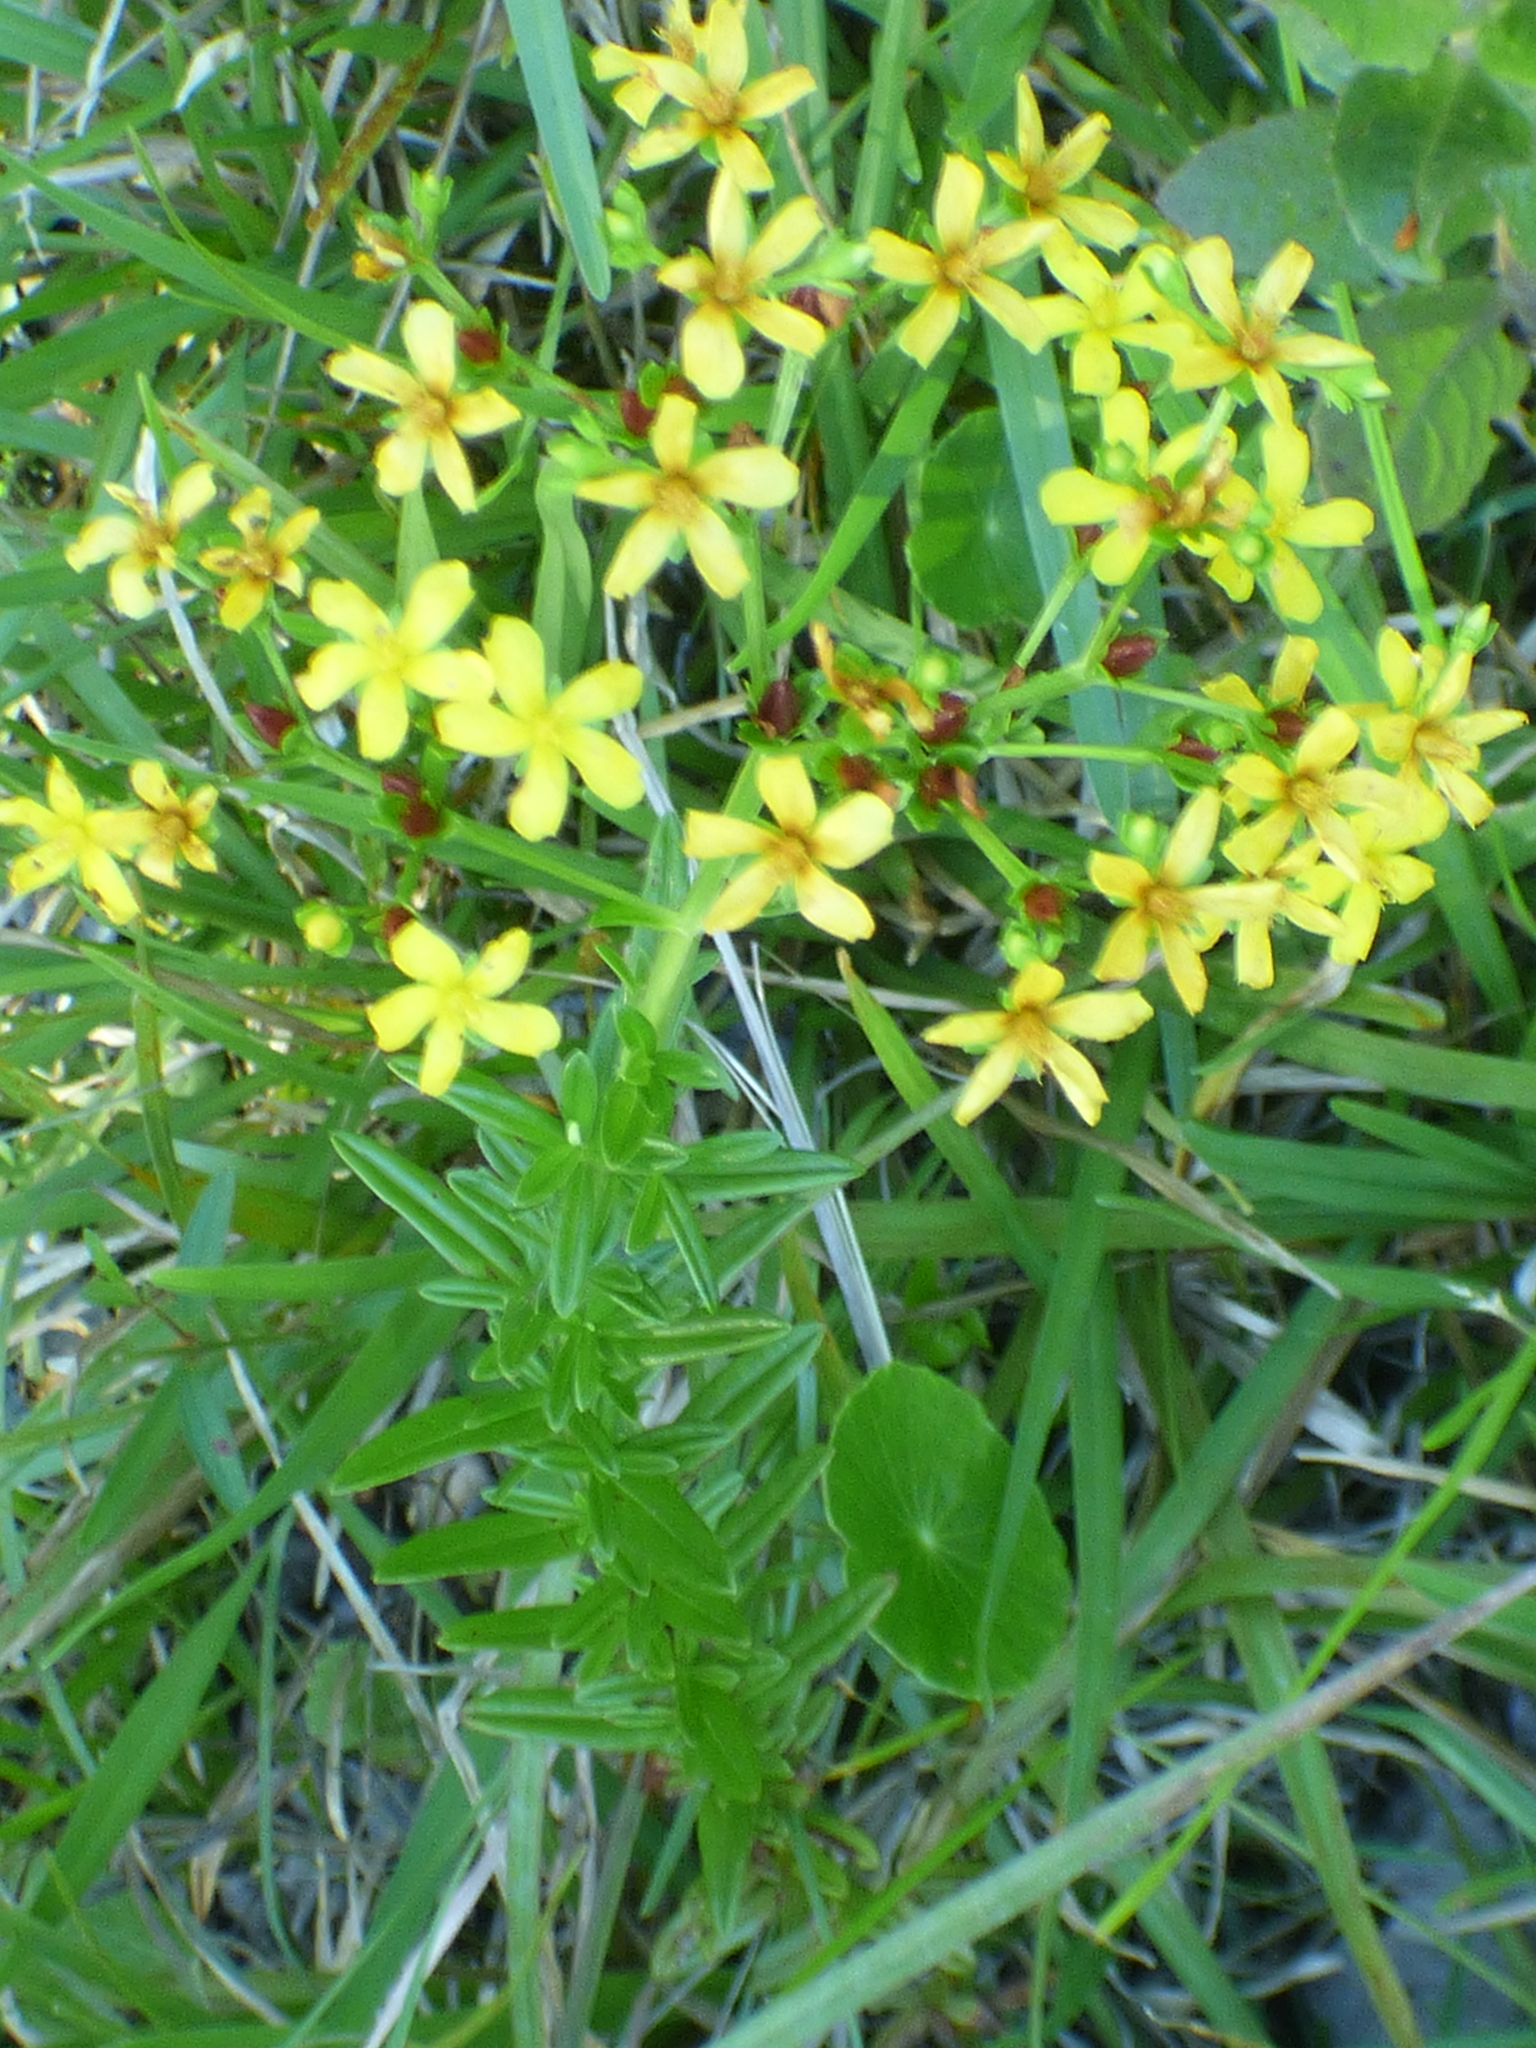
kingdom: Plantae
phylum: Tracheophyta
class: Magnoliopsida
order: Malpighiales
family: Hypericaceae
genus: Hypericum
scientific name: Hypericum cistifolium
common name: Round-pod st. john's-wort
